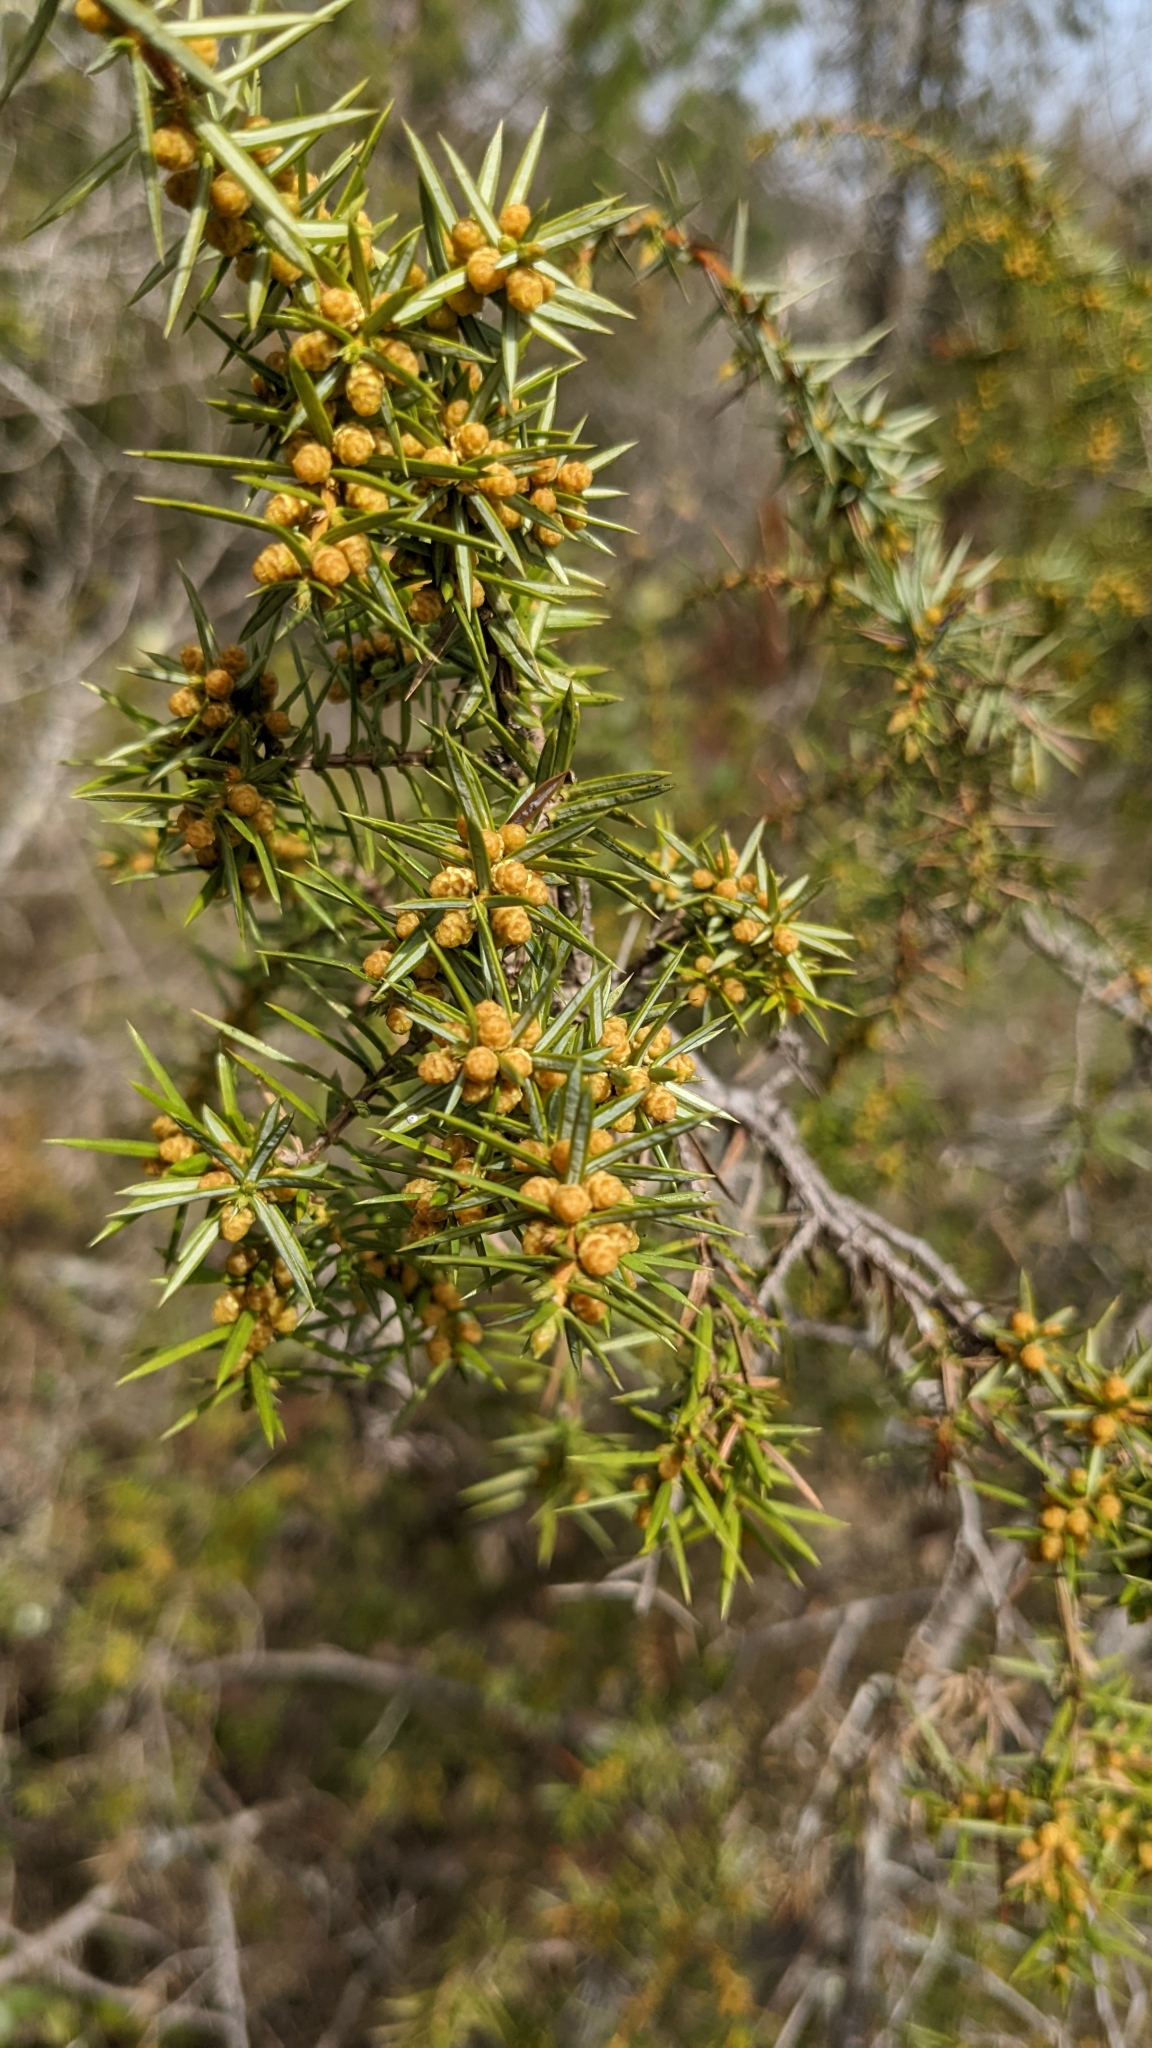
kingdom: Plantae
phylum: Tracheophyta
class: Pinopsida
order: Pinales
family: Cupressaceae
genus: Juniperus
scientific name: Juniperus communis
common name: Common juniper
